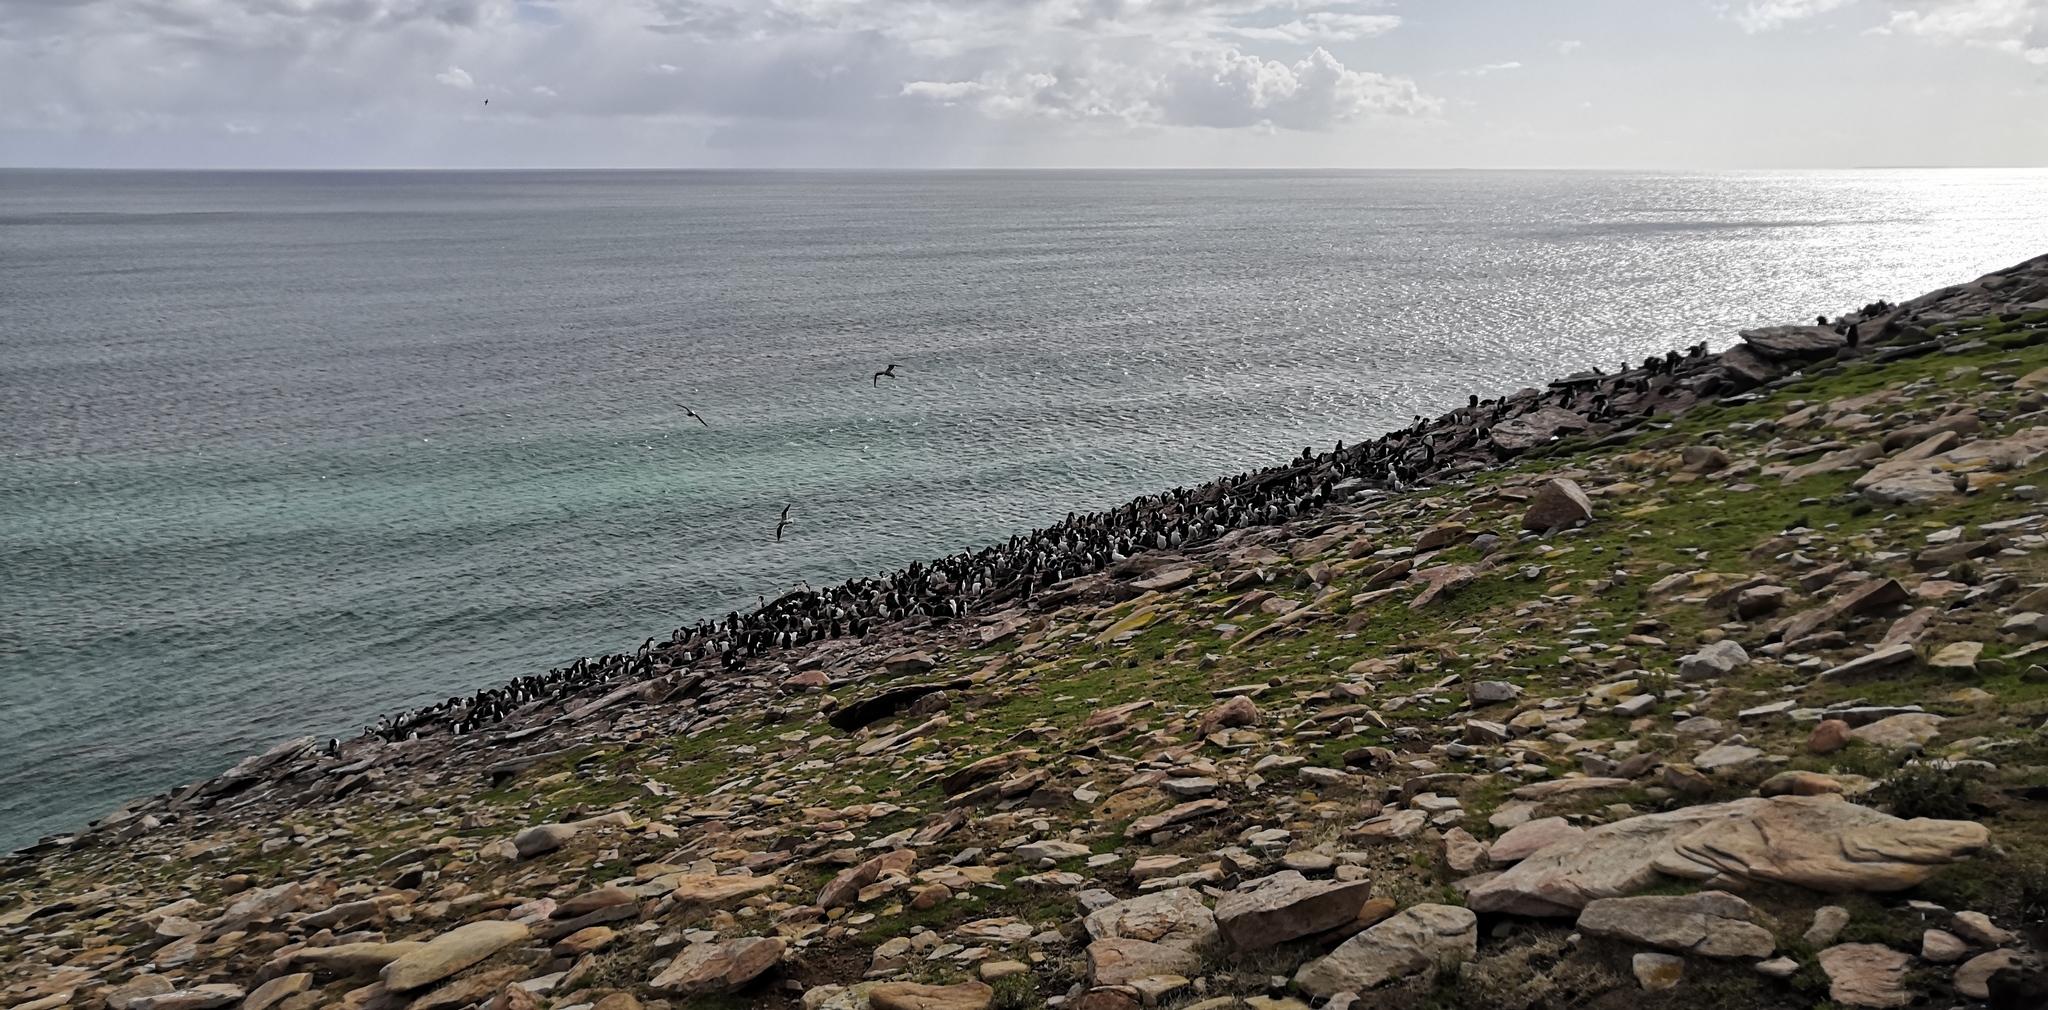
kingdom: Animalia
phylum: Chordata
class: Aves
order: Sphenisciformes
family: Spheniscidae
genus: Eudyptes
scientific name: Eudyptes chrysocome
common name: Southern rockhopper penguin
